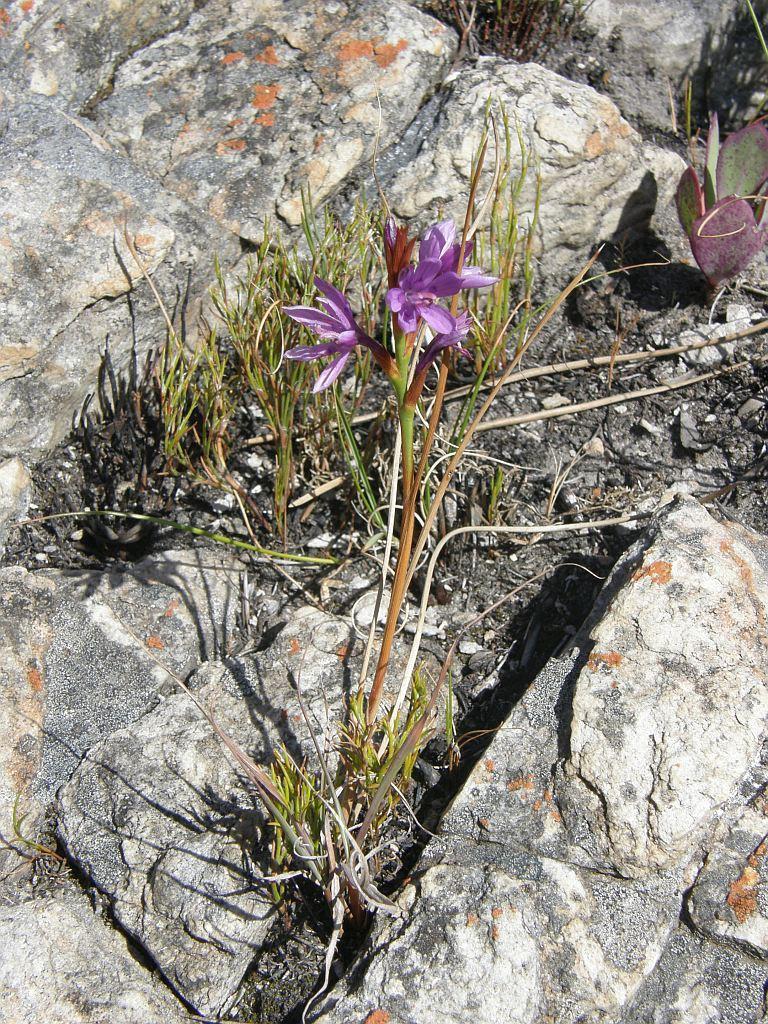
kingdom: Plantae
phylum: Tracheophyta
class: Liliopsida
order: Asparagales
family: Iridaceae
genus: Thereianthus
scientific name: Thereianthus bracteolatus
